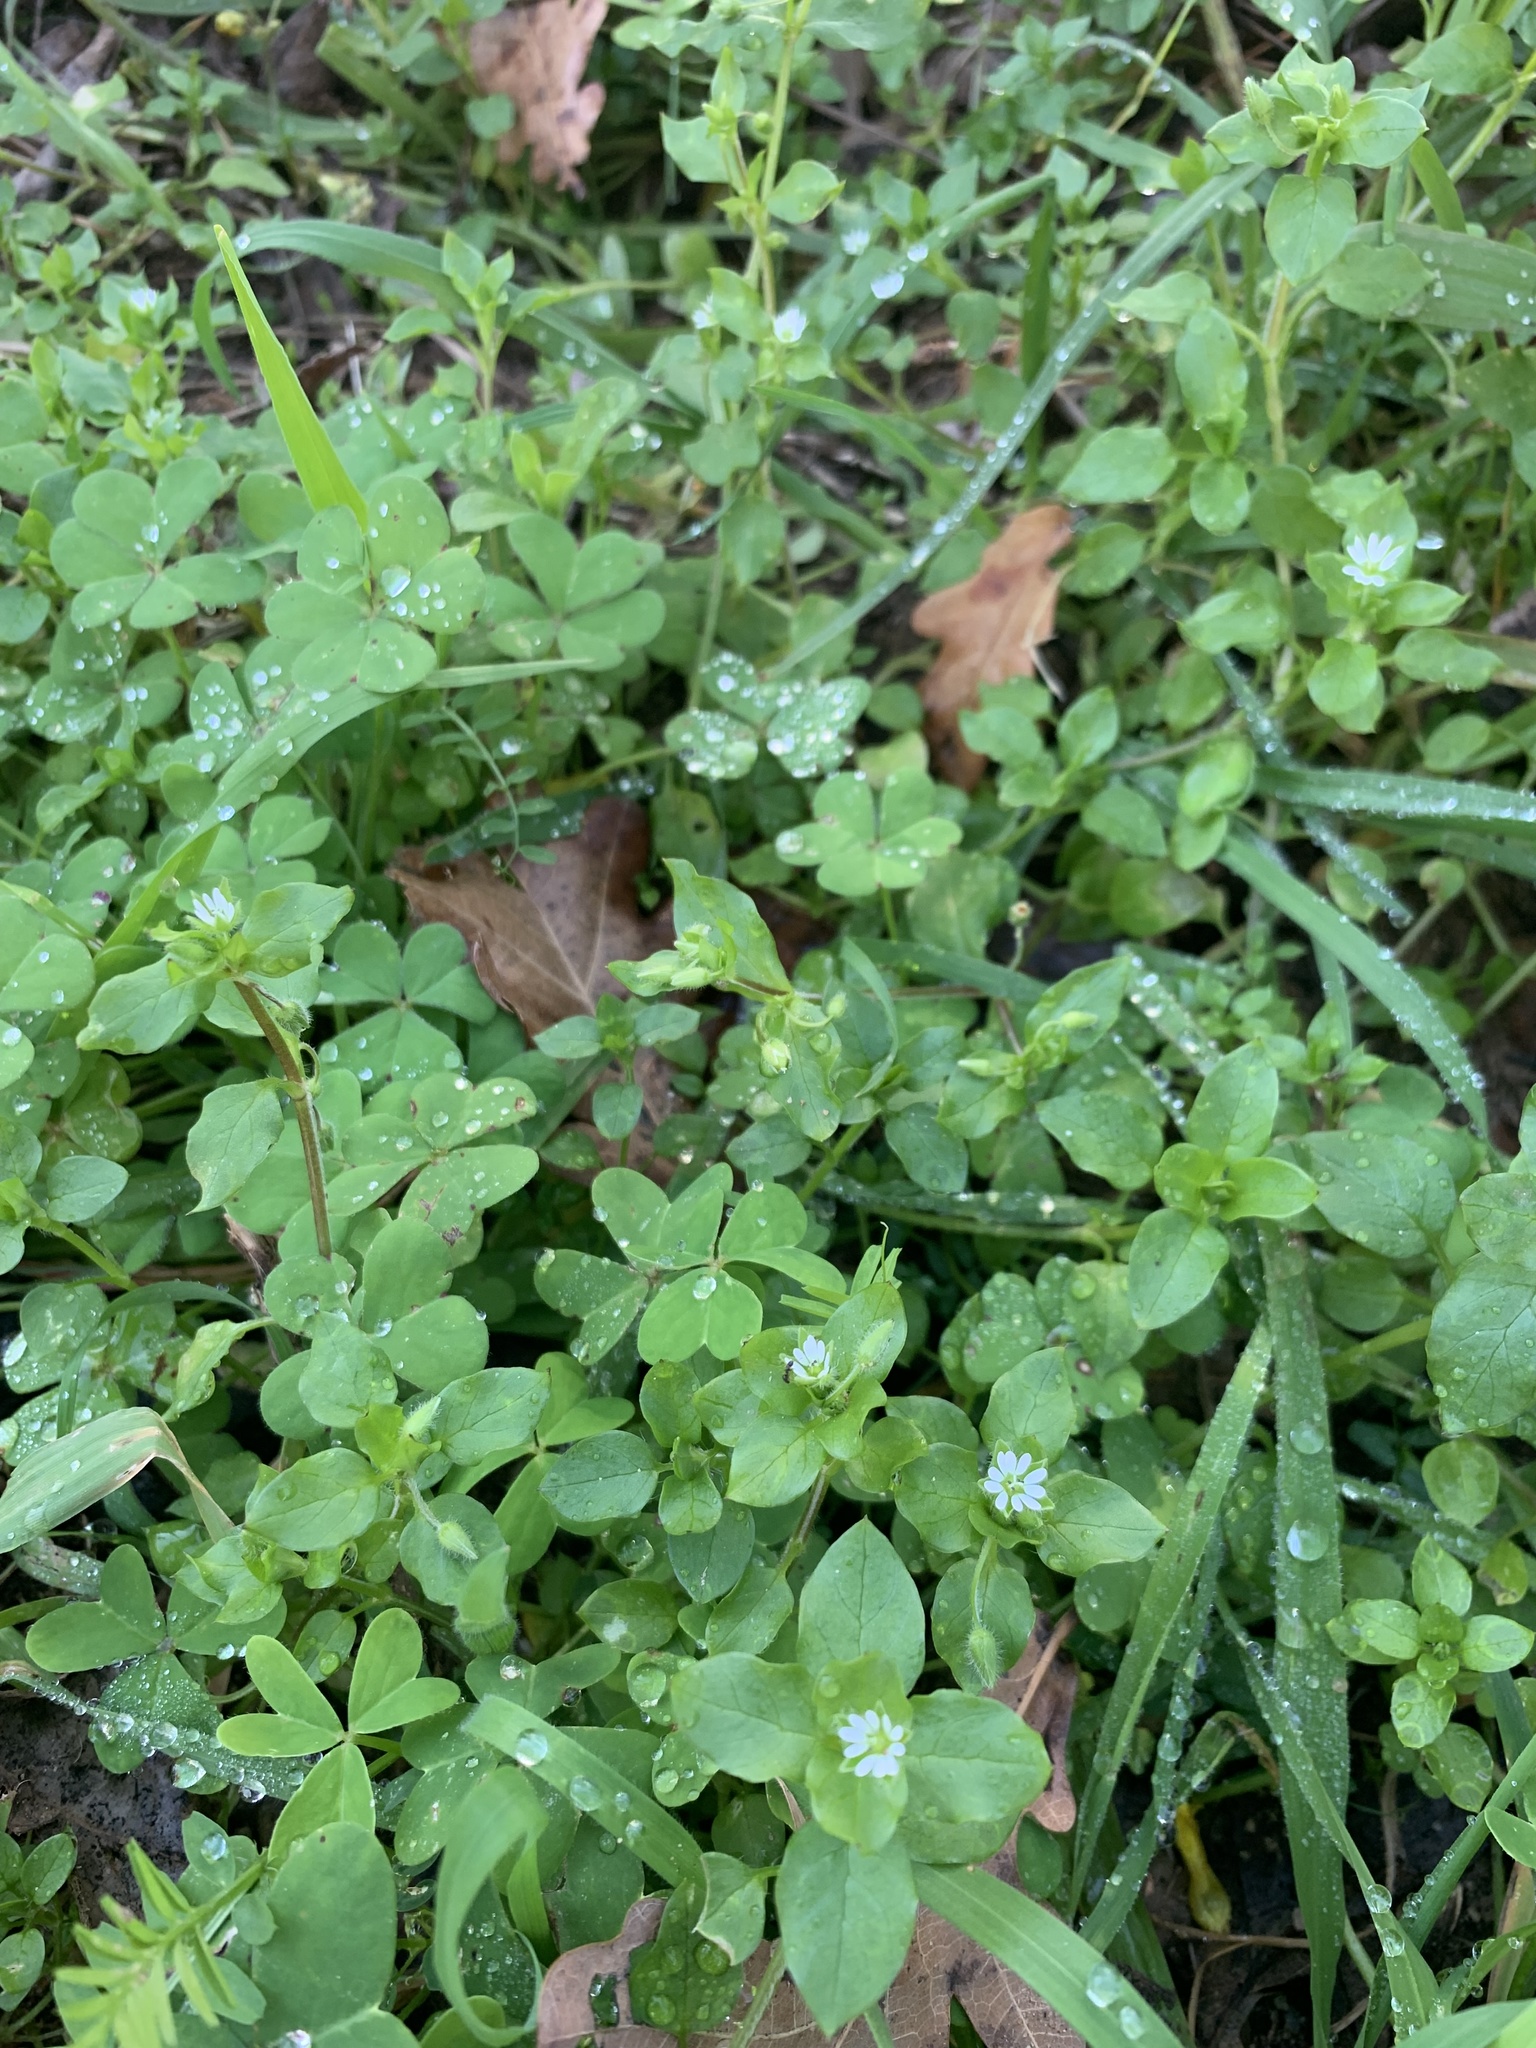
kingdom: Plantae
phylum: Tracheophyta
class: Magnoliopsida
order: Caryophyllales
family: Caryophyllaceae
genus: Stellaria
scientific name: Stellaria media
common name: Common chickweed
